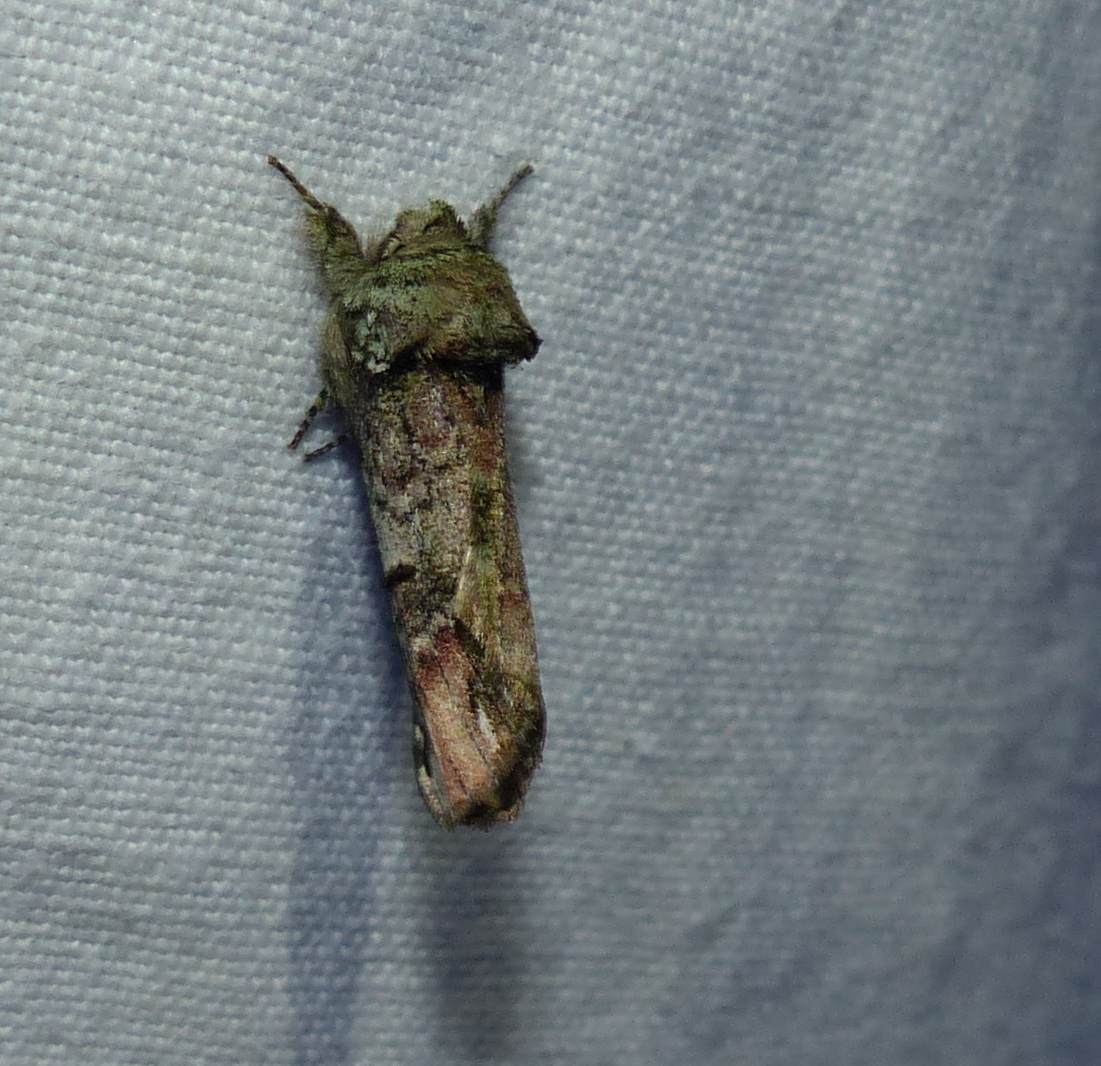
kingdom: Animalia
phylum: Arthropoda
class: Insecta
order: Lepidoptera
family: Notodontidae
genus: Schizura
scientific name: Schizura
